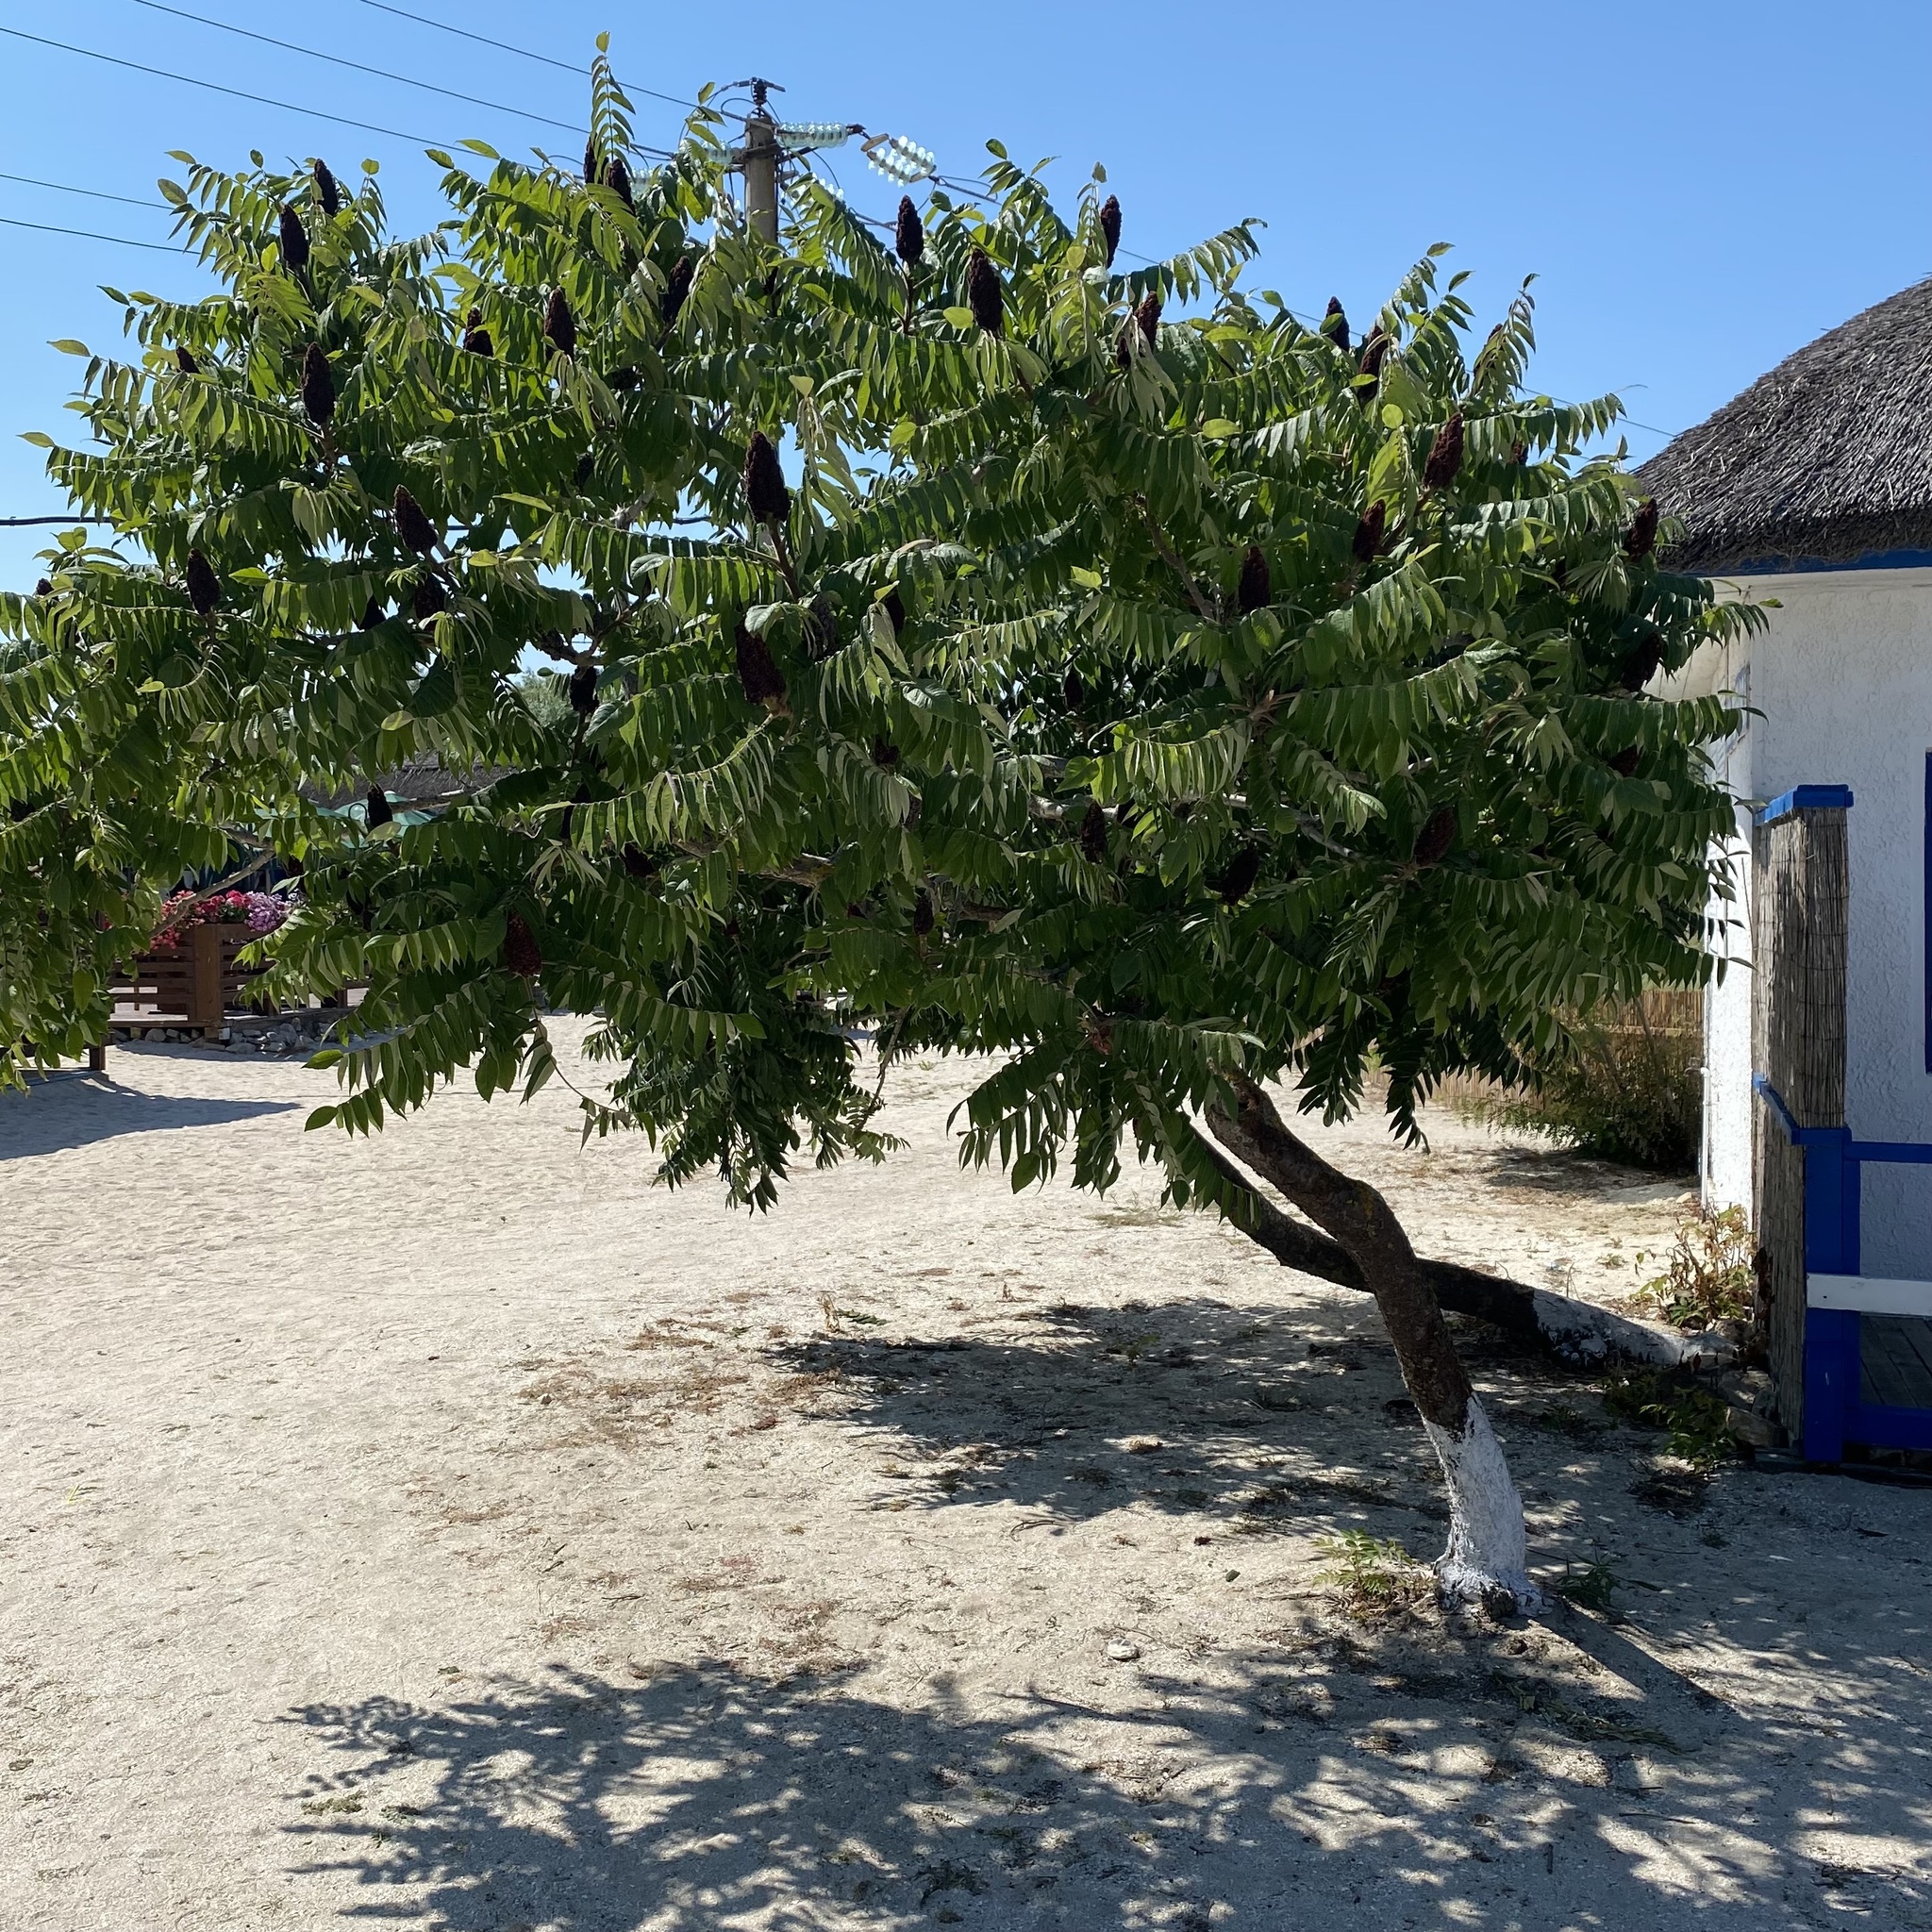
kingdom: Plantae
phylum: Tracheophyta
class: Magnoliopsida
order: Sapindales
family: Anacardiaceae
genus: Rhus
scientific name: Rhus typhina
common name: Staghorn sumac
